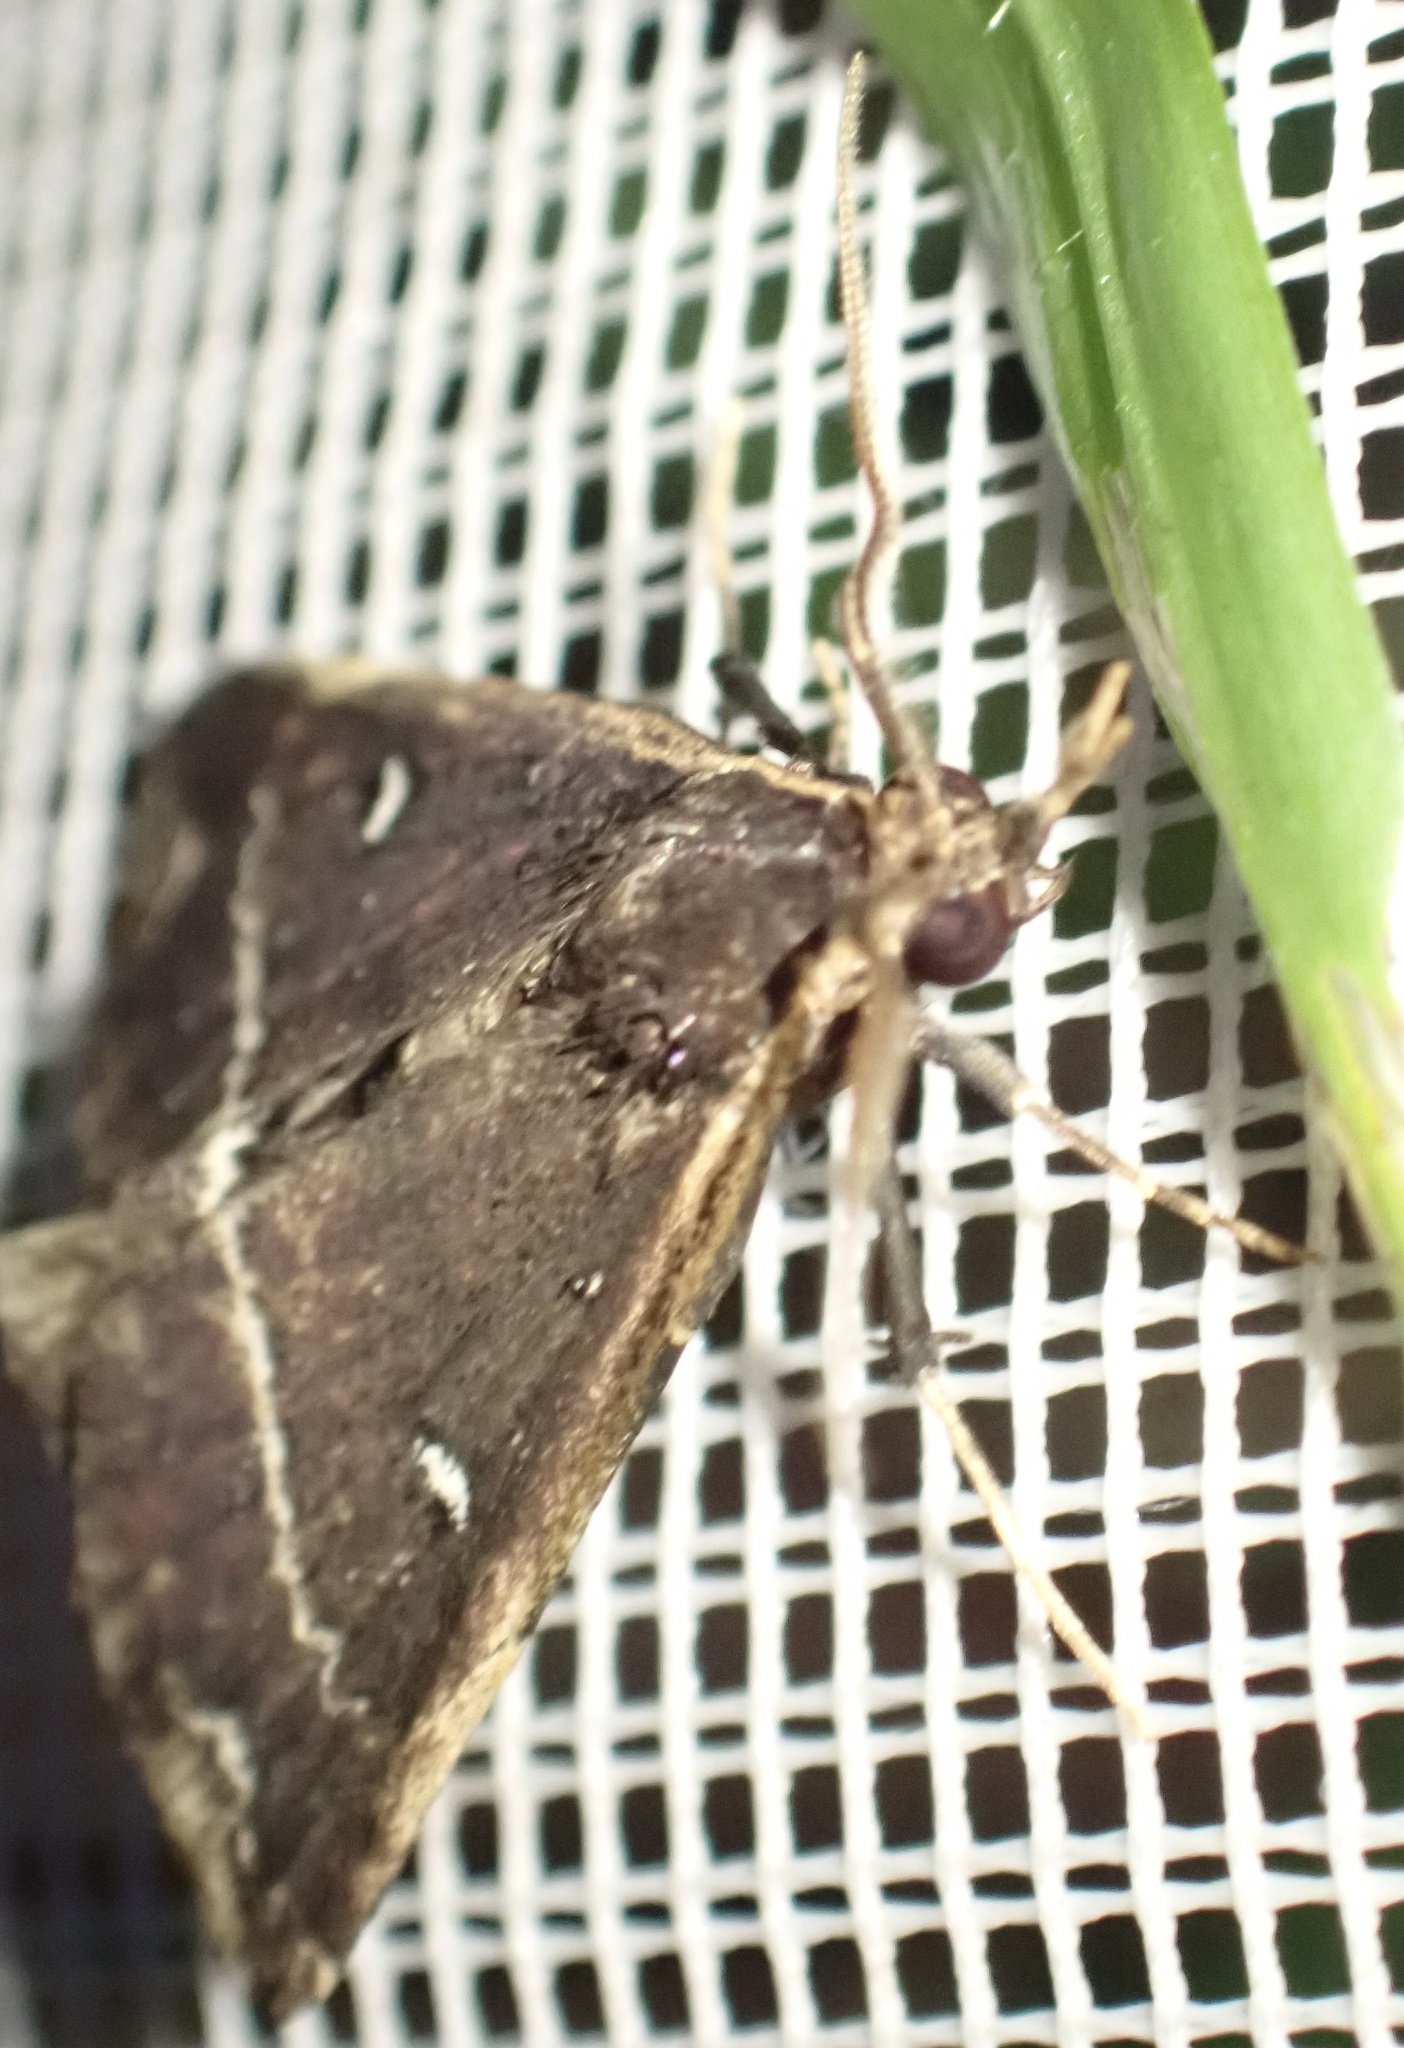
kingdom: Animalia
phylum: Arthropoda
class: Insecta
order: Lepidoptera
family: Erebidae
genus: Adrapsa
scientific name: Adrapsa ablualis
